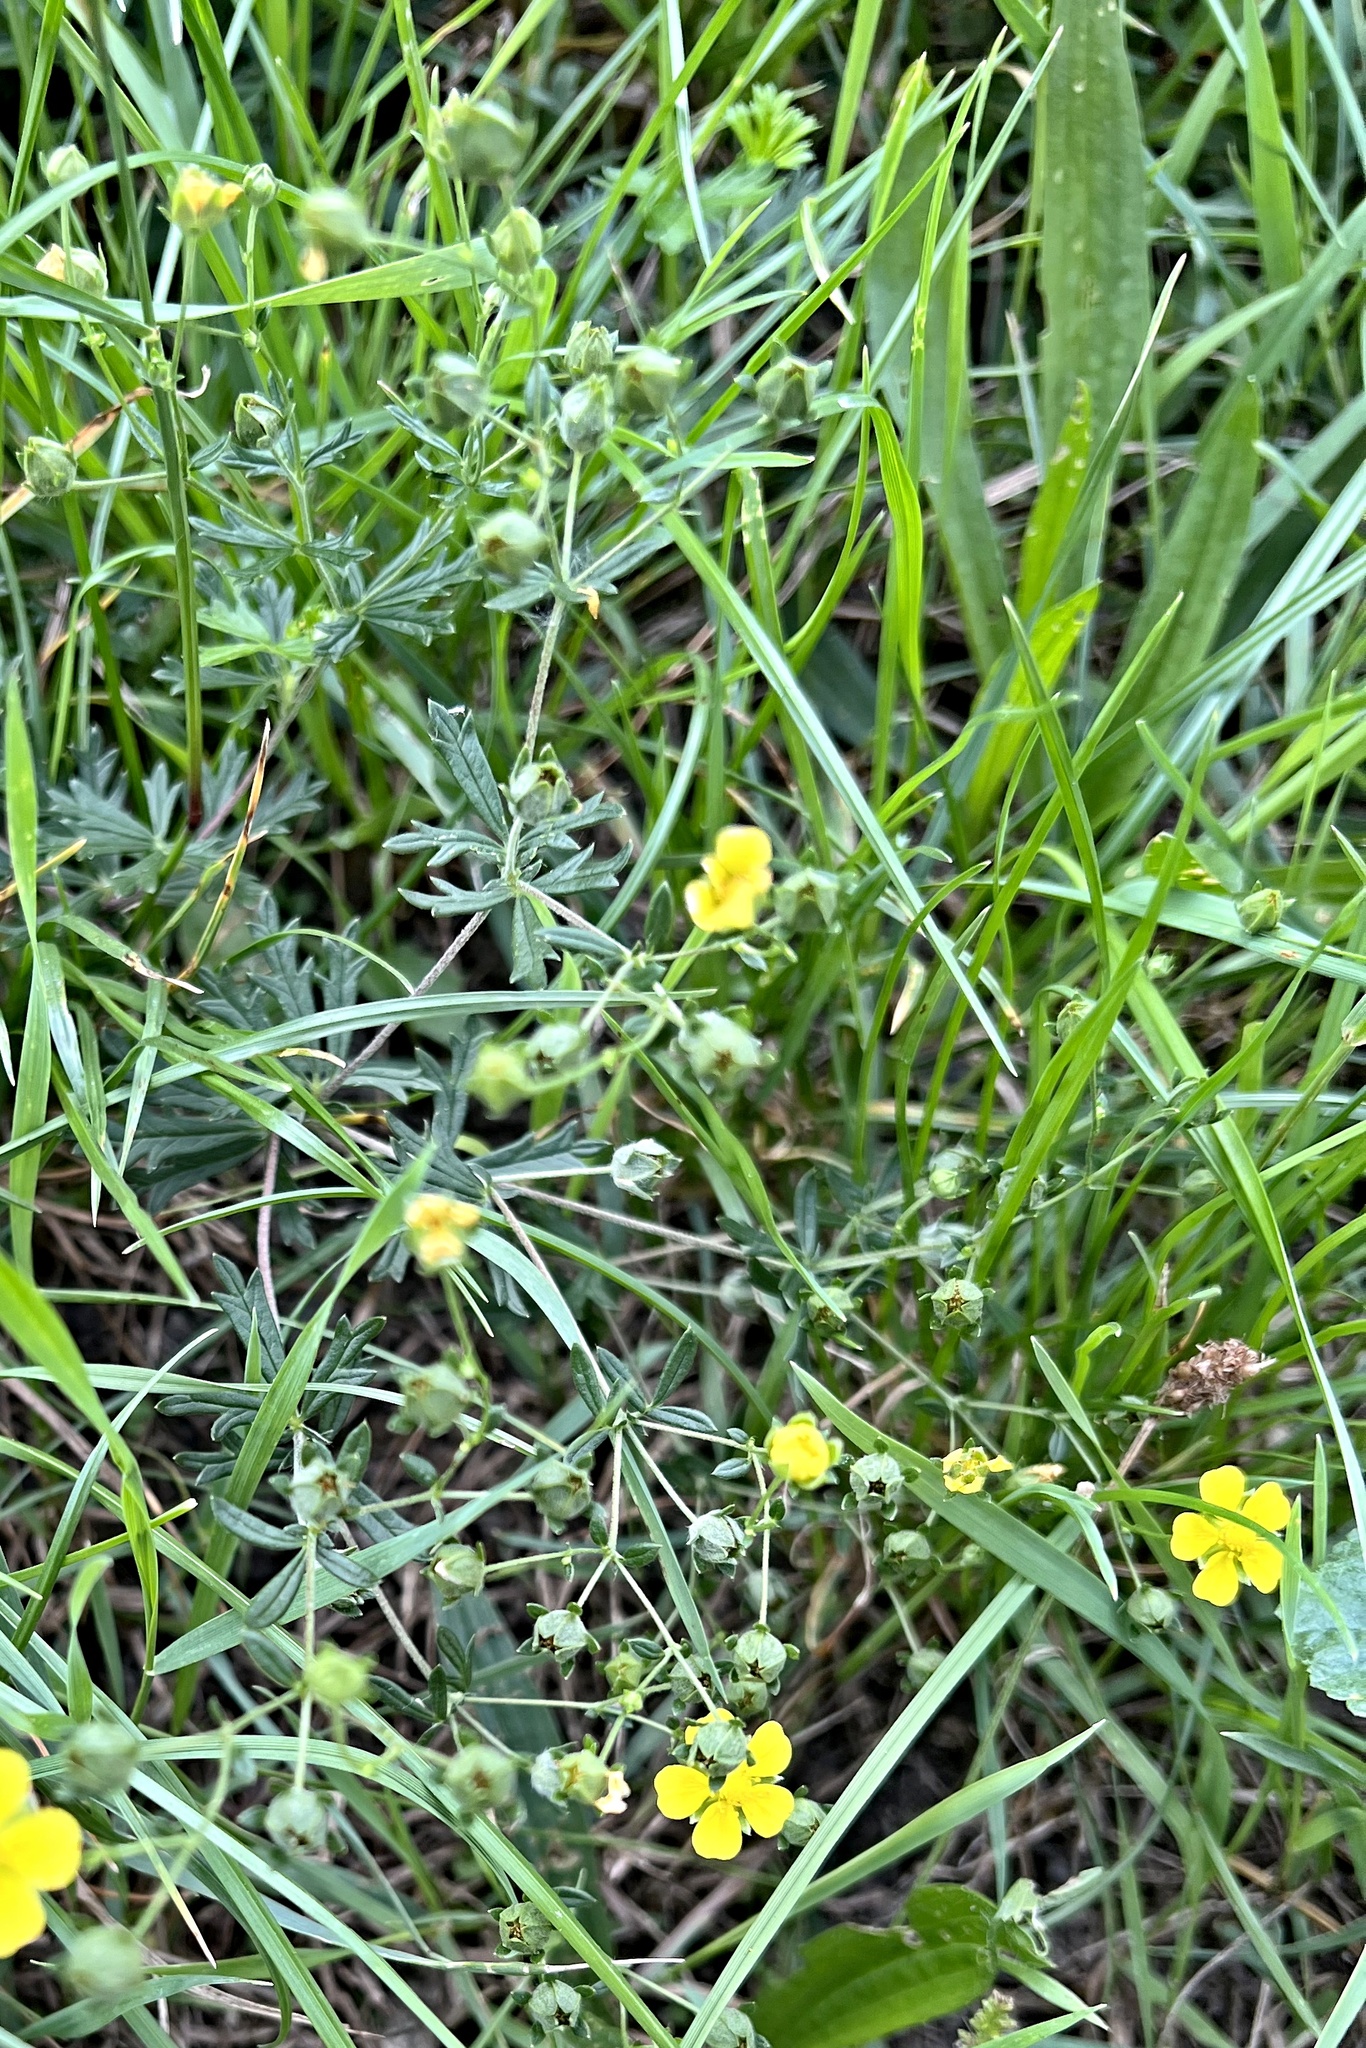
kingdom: Plantae
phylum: Tracheophyta
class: Magnoliopsida
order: Rosales
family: Rosaceae
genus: Potentilla
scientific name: Potentilla argentea
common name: Hoary cinquefoil
